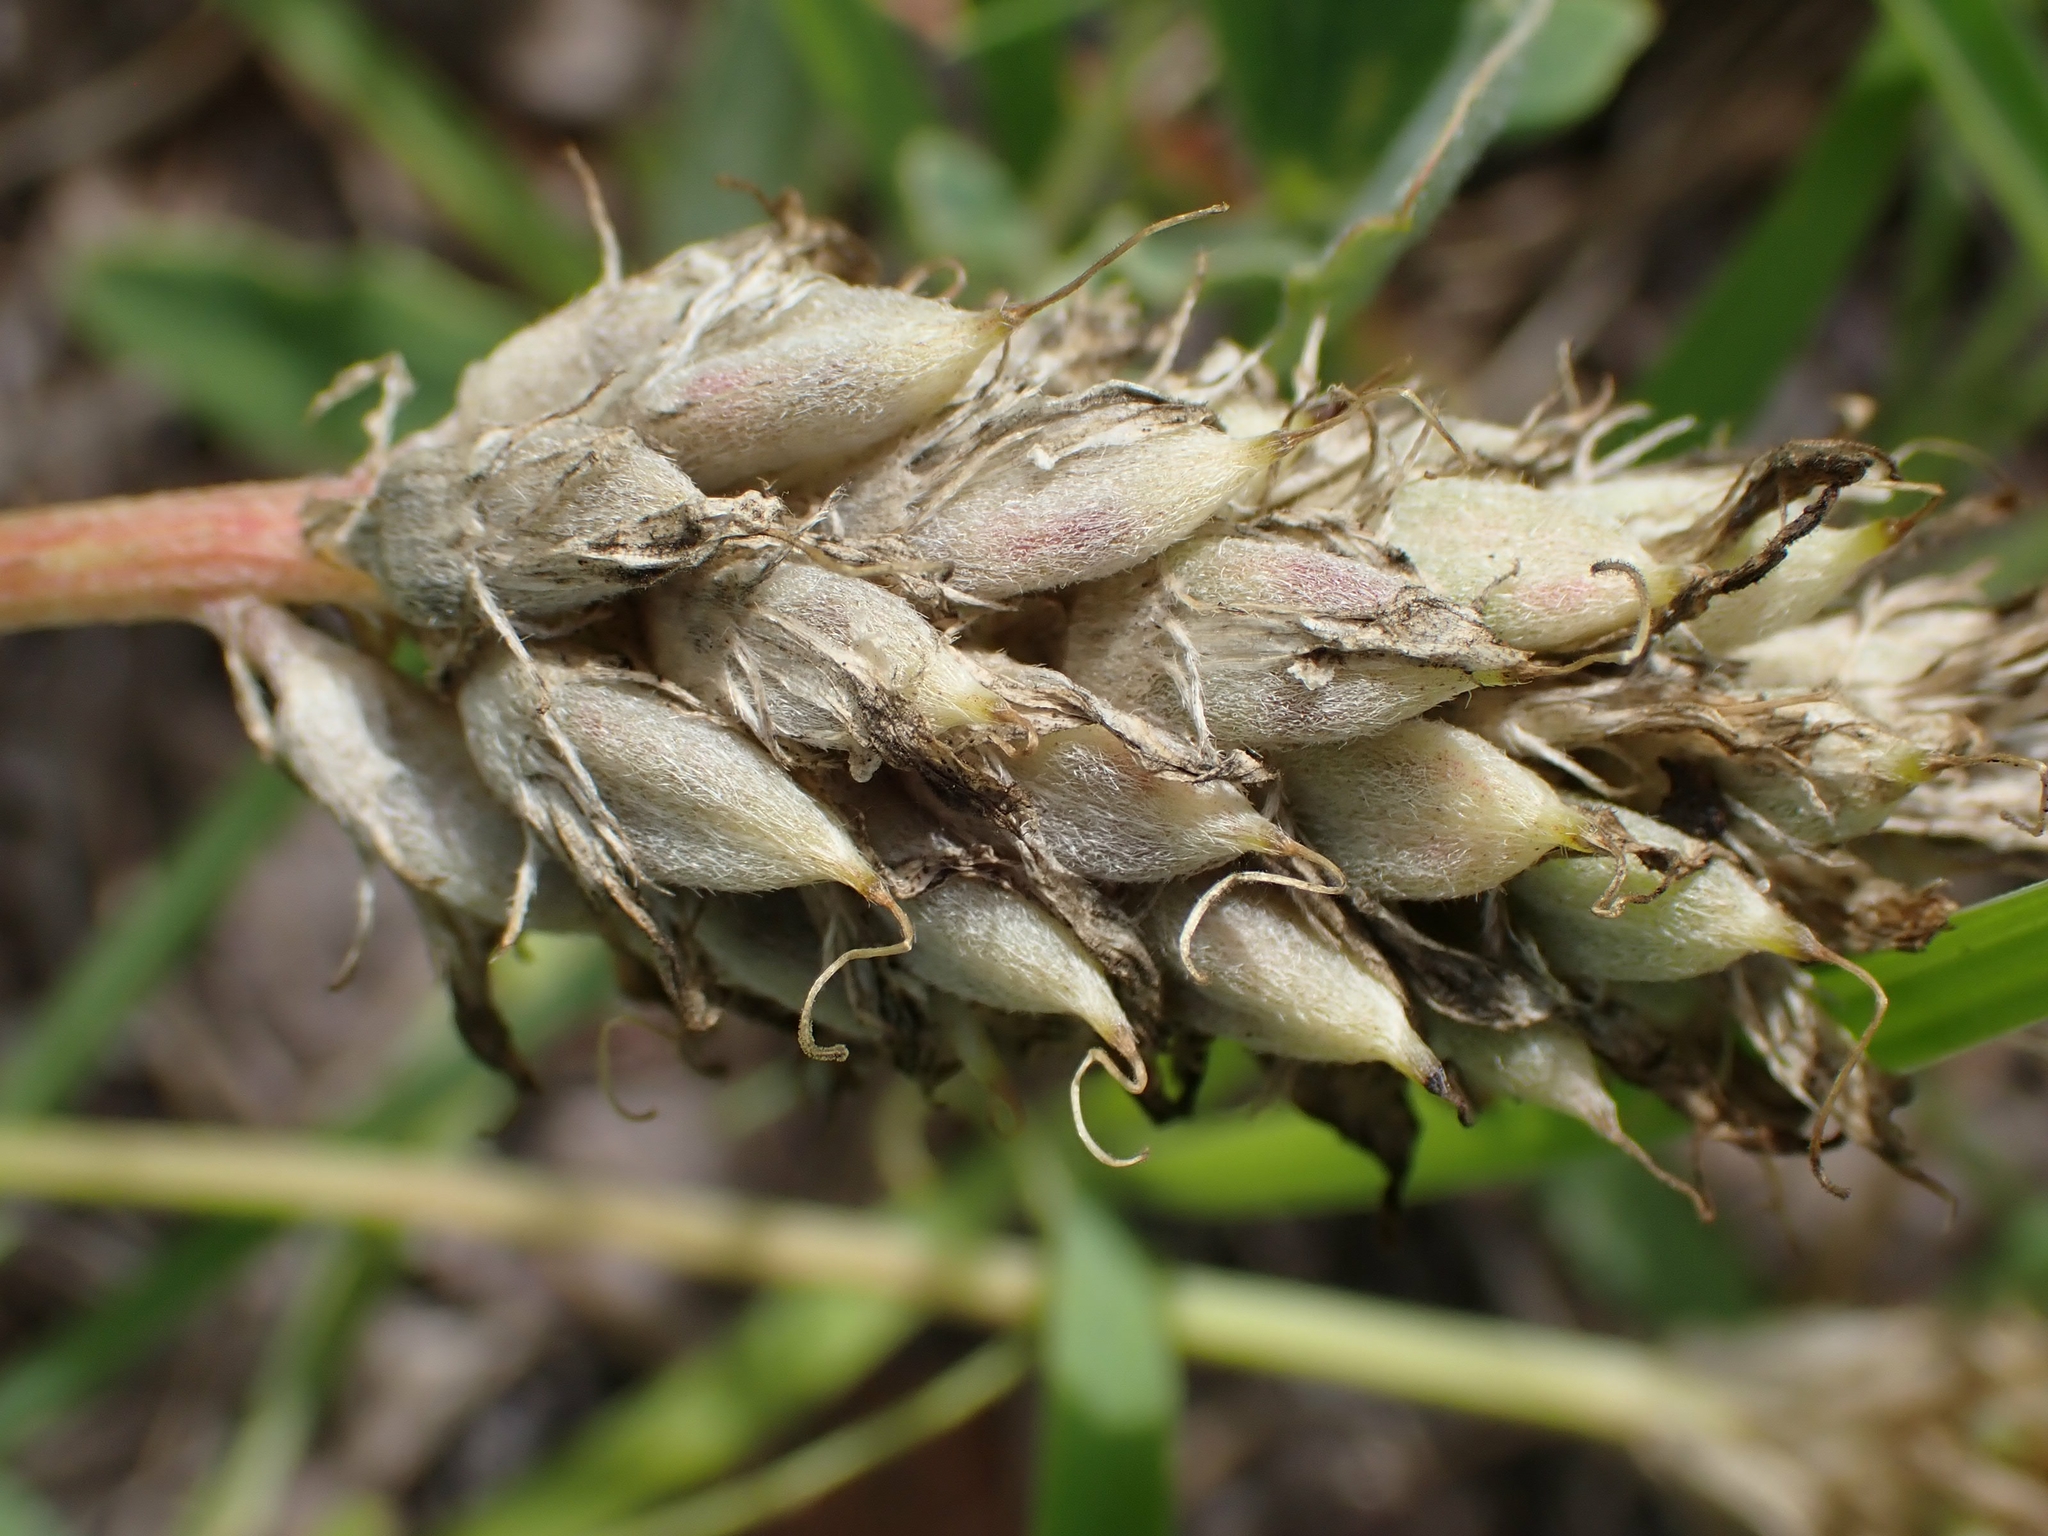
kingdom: Plantae
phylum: Tracheophyta
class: Magnoliopsida
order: Fabales
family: Fabaceae
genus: Astragalus
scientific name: Astragalus laxmannii
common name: Laxmann's milk-vetch
